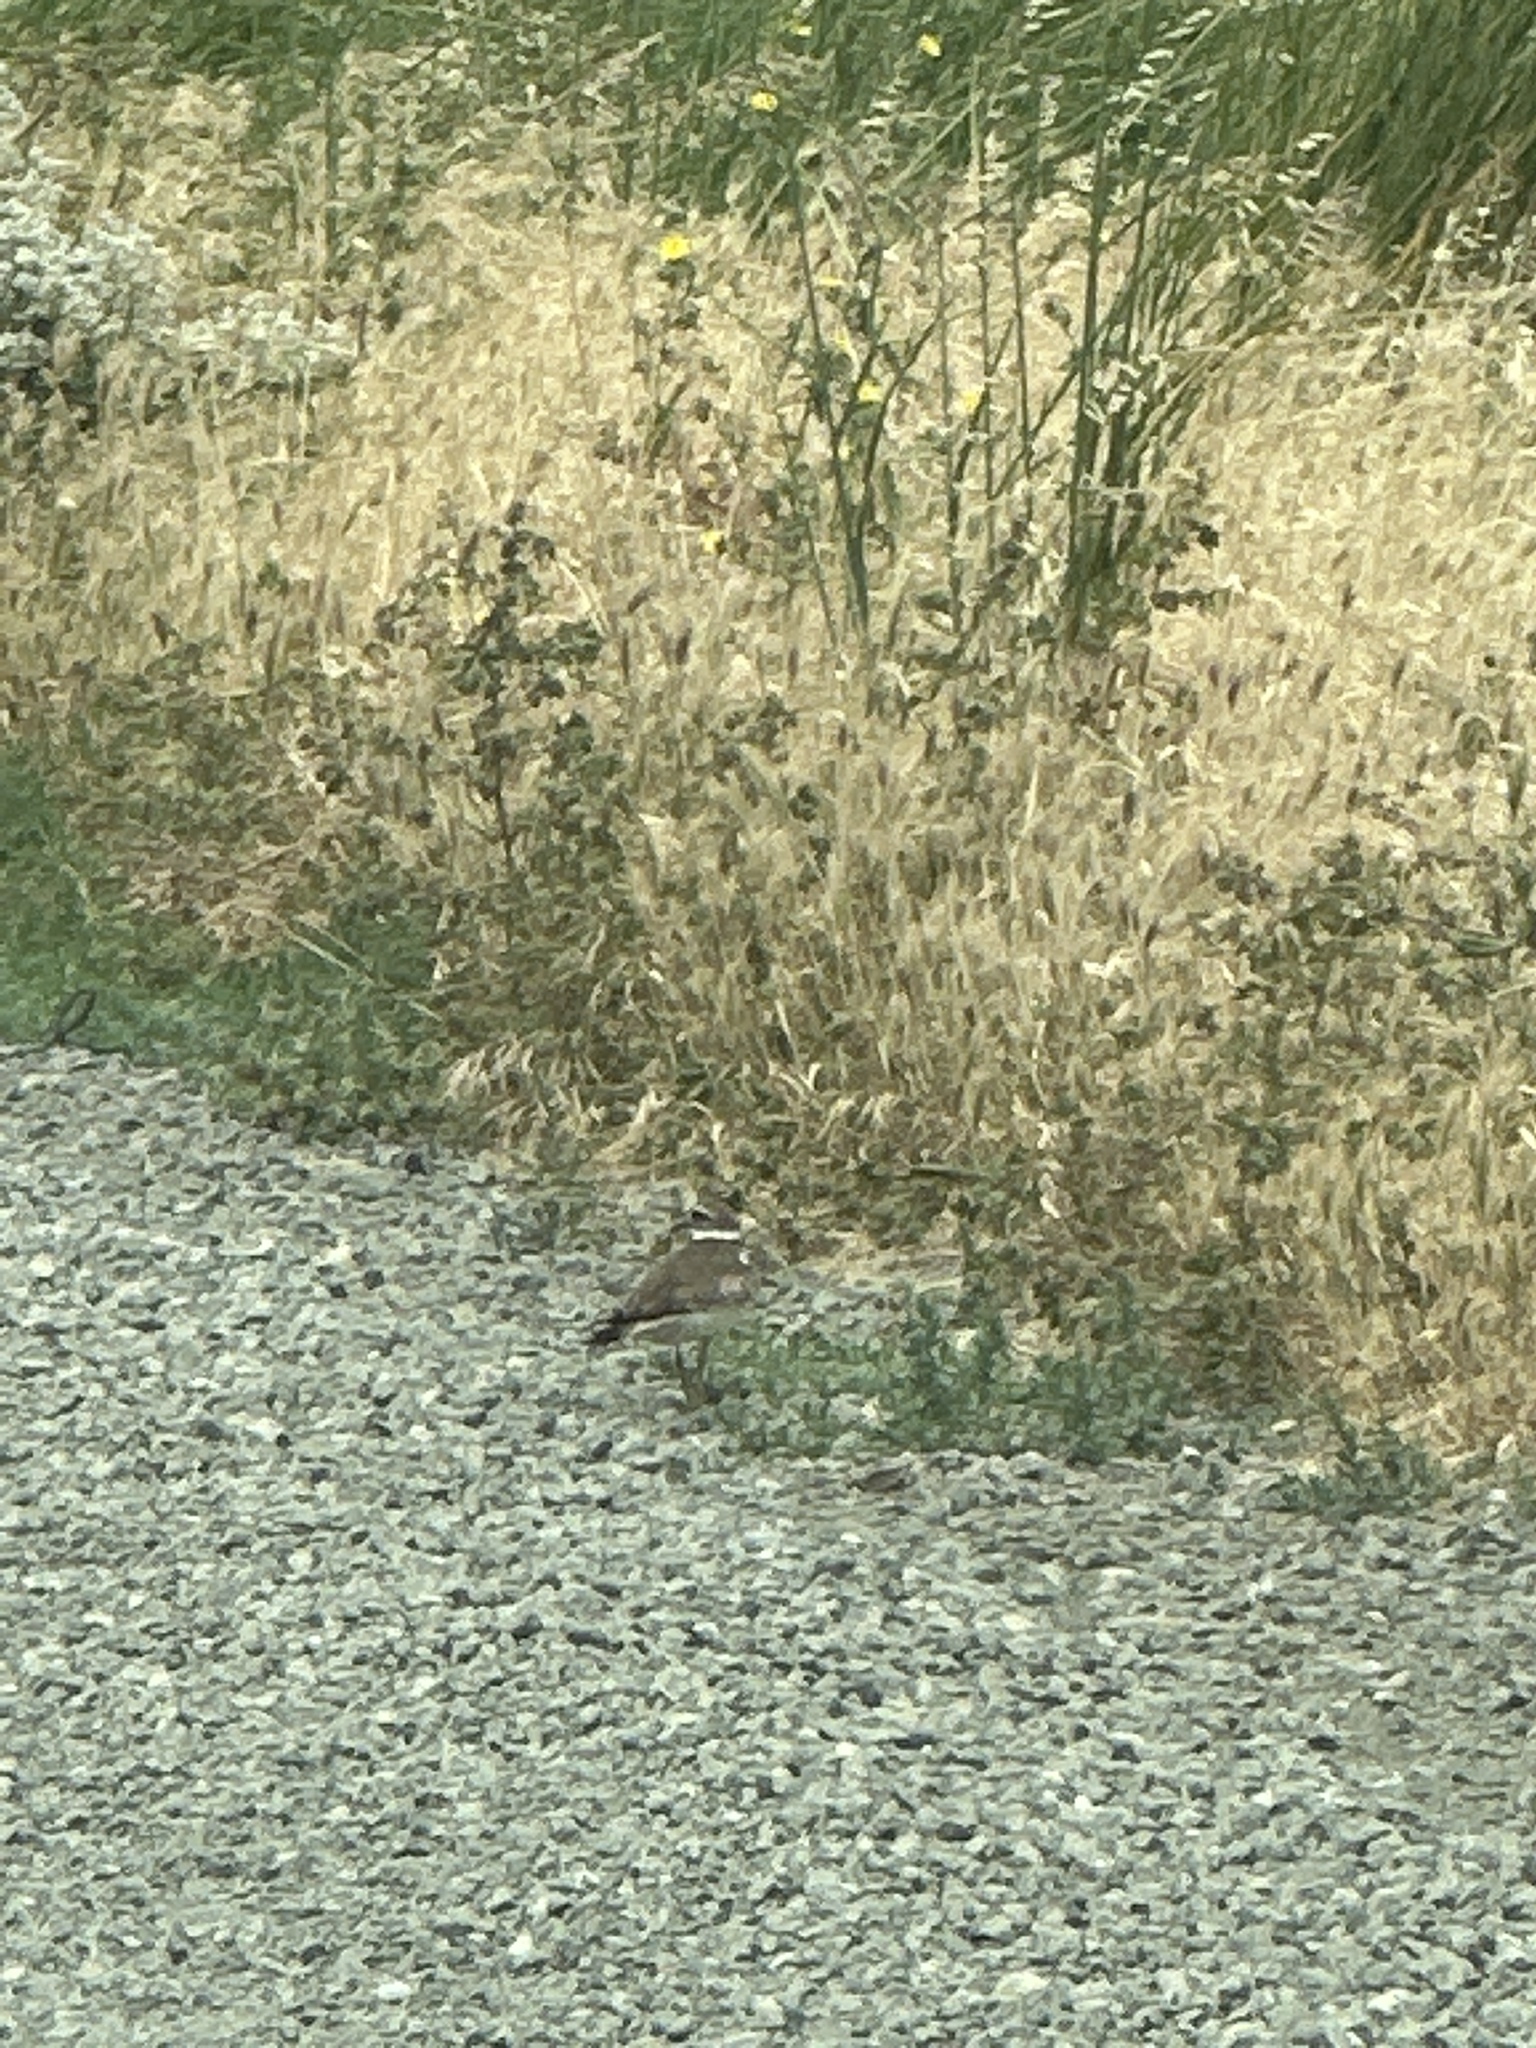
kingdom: Animalia
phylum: Chordata
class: Aves
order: Charadriiformes
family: Charadriidae
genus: Charadrius
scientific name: Charadrius vociferus
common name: Killdeer
